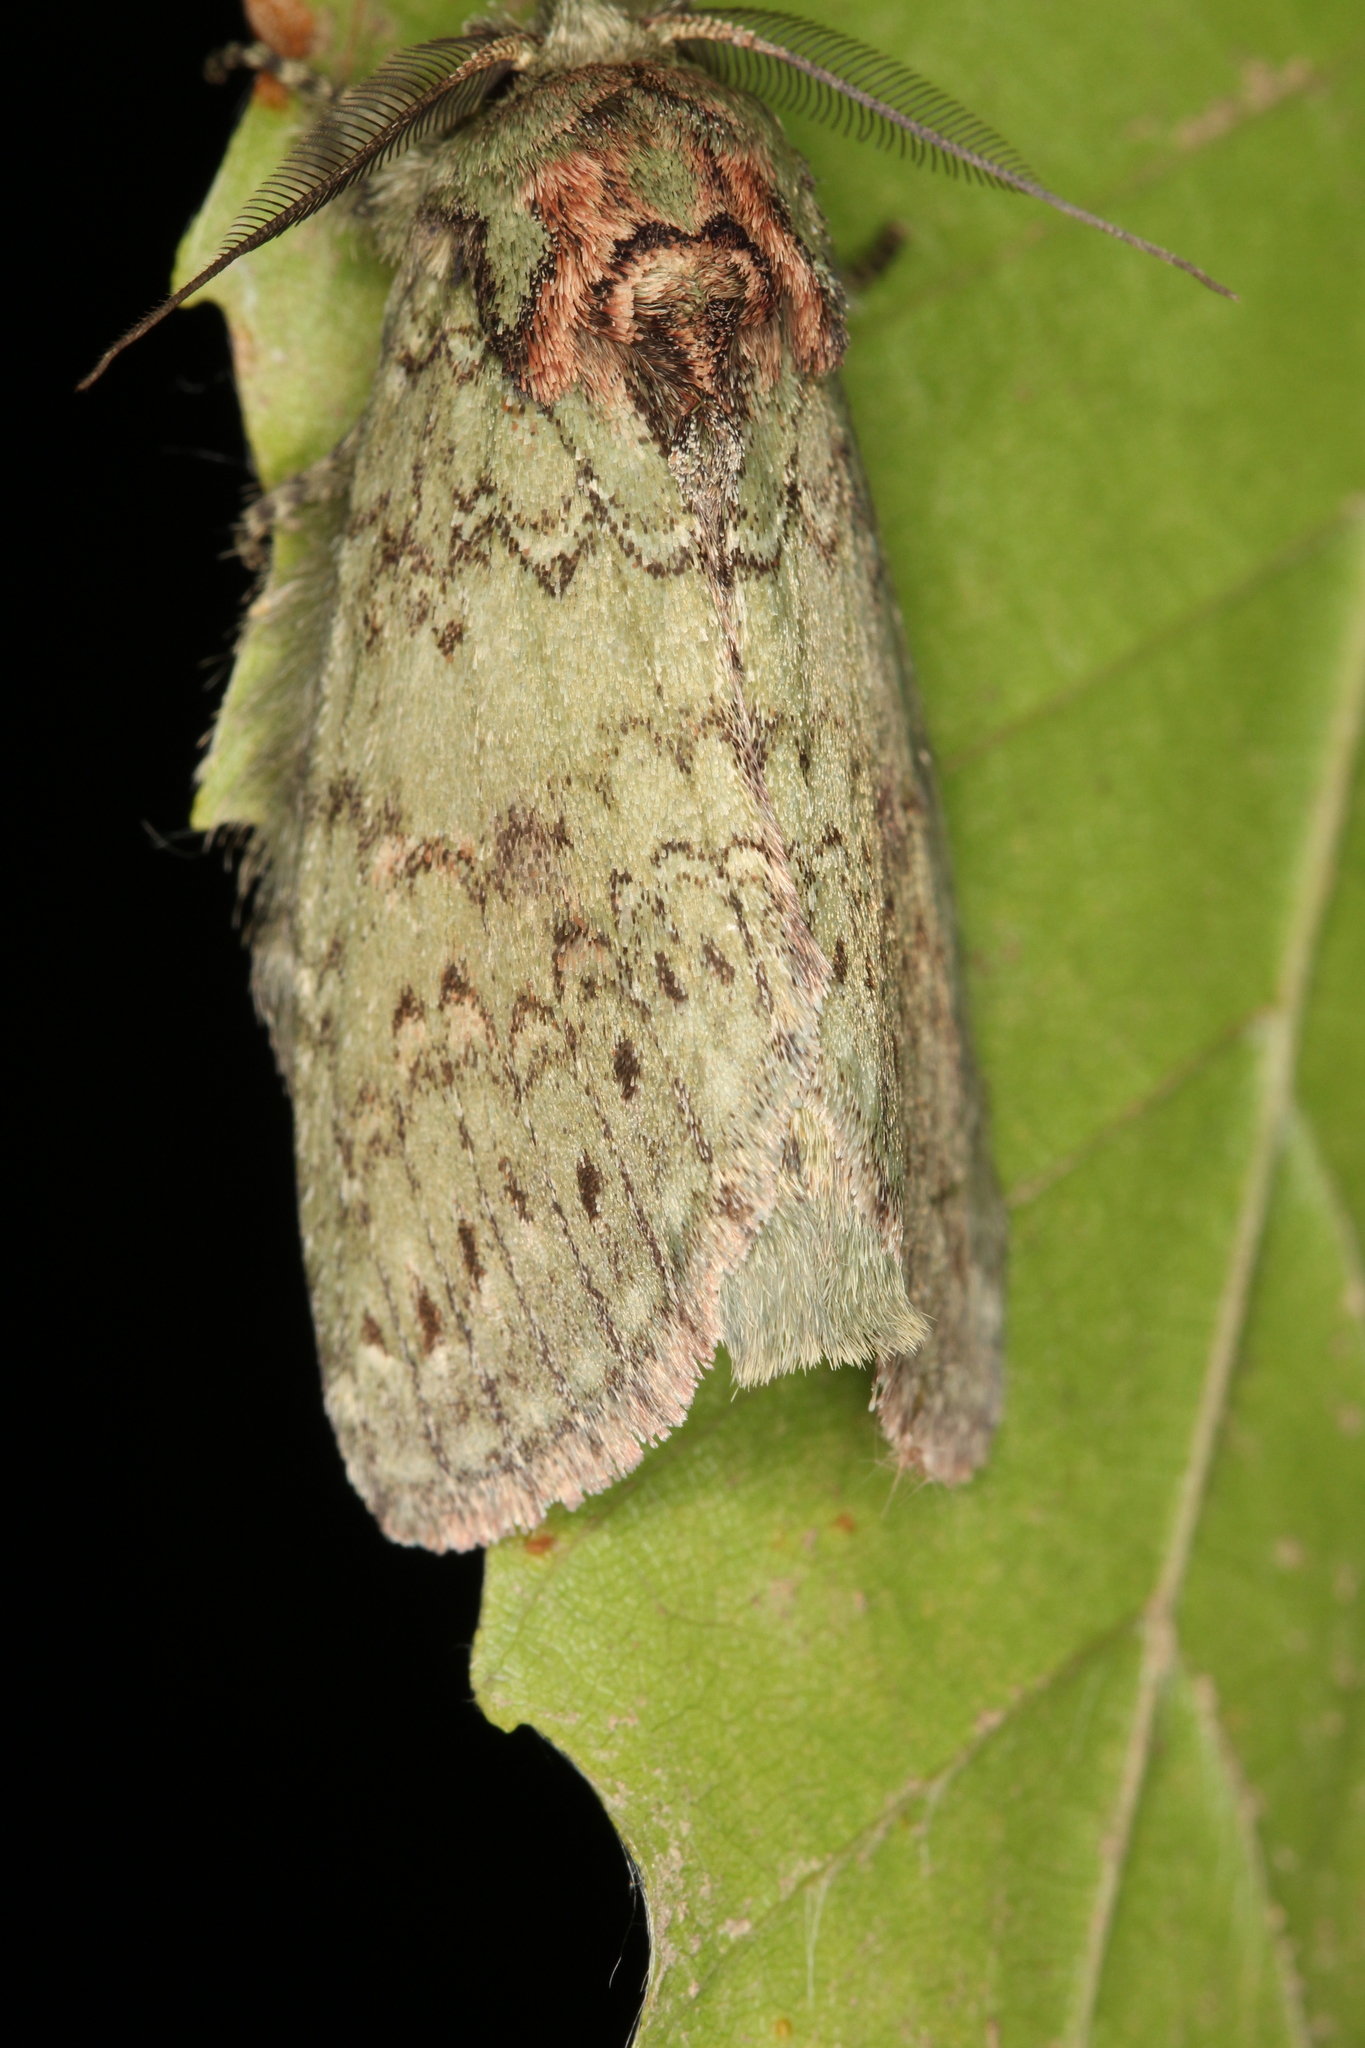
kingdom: Animalia
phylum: Arthropoda
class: Insecta
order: Lepidoptera
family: Notodontidae
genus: Disphragis
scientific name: Disphragis Cecrita biundata
